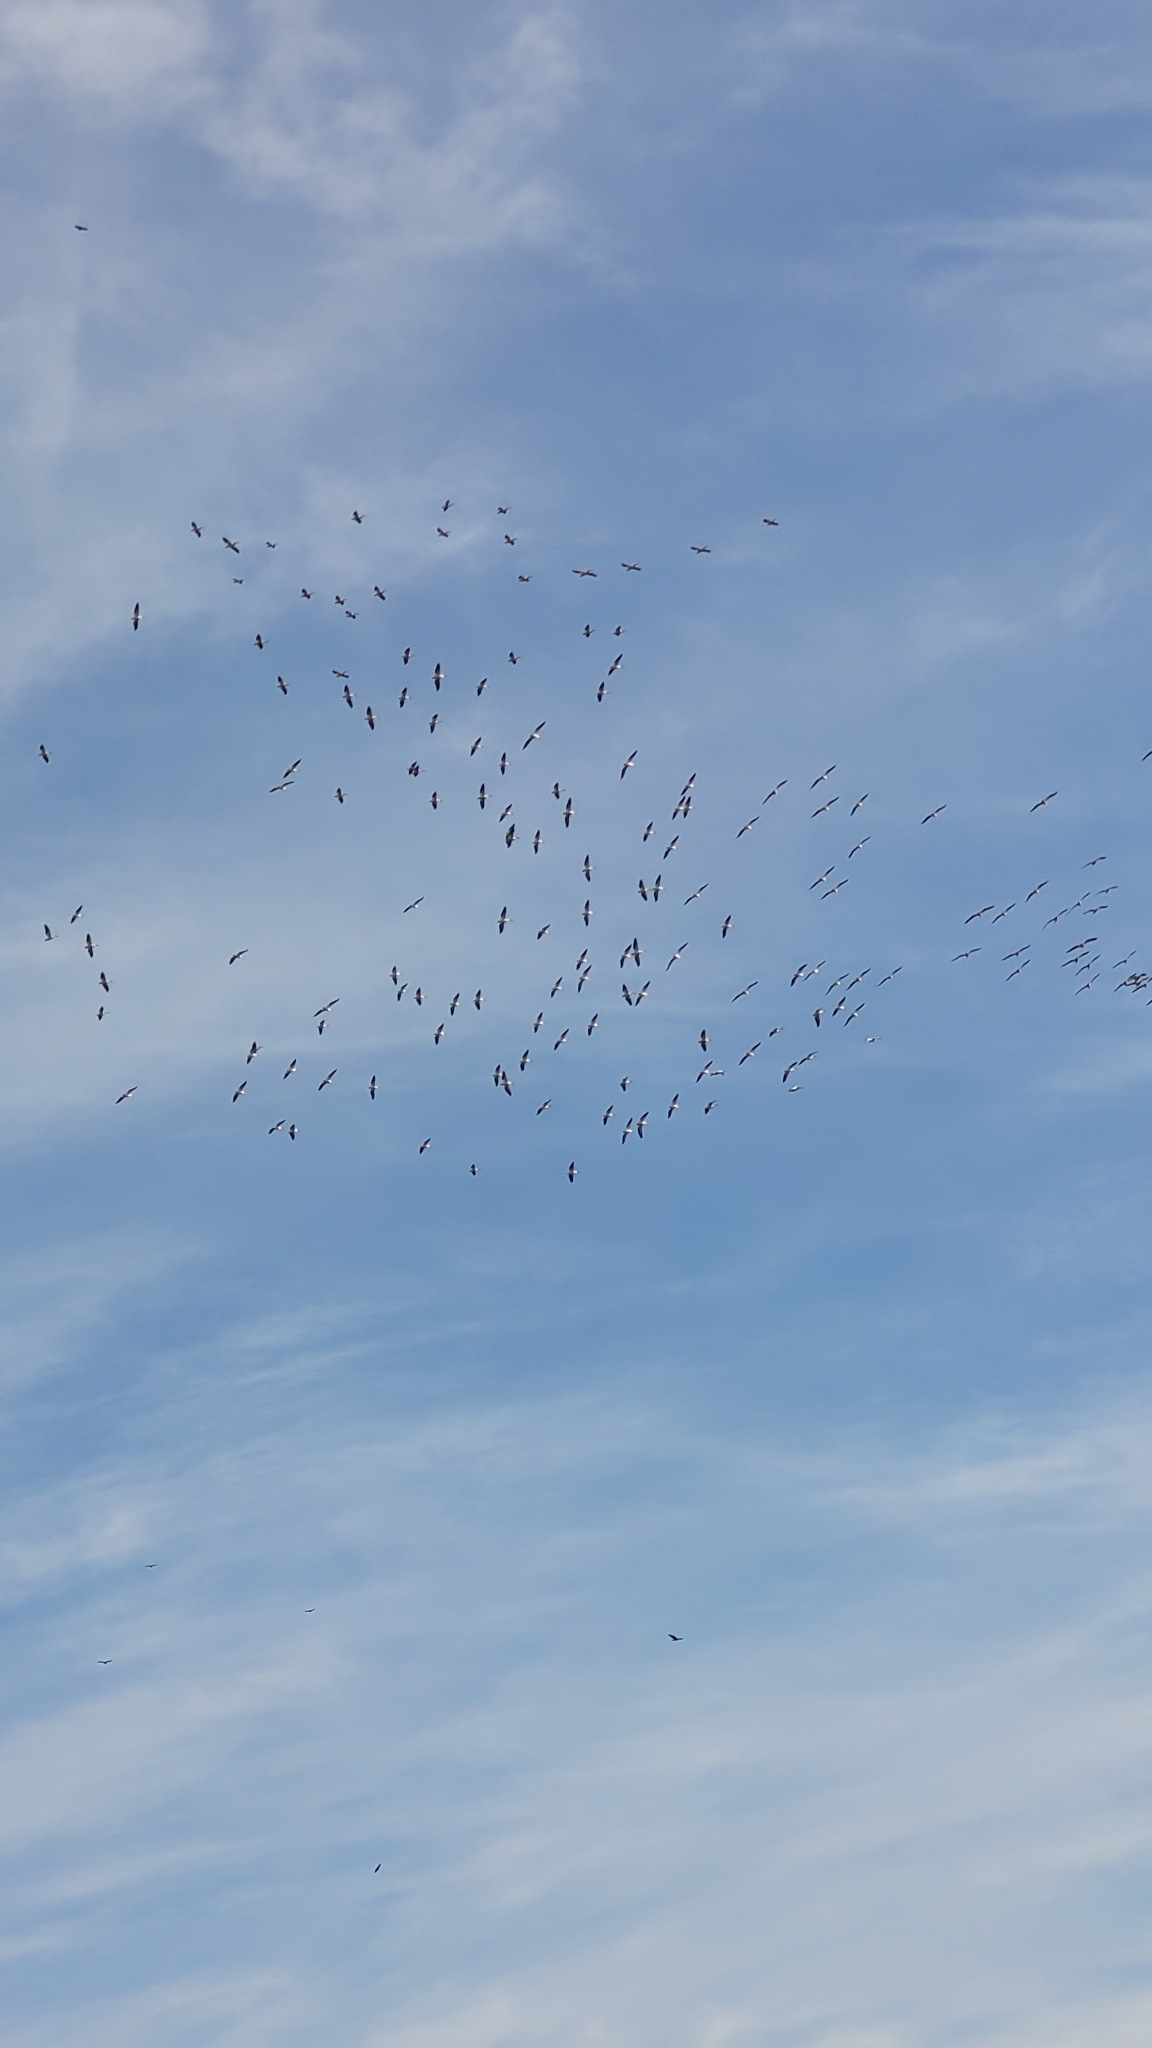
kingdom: Animalia
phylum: Chordata
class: Aves
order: Pelecaniformes
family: Pelecanidae
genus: Pelecanus
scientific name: Pelecanus erythrorhynchos
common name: American white pelican
